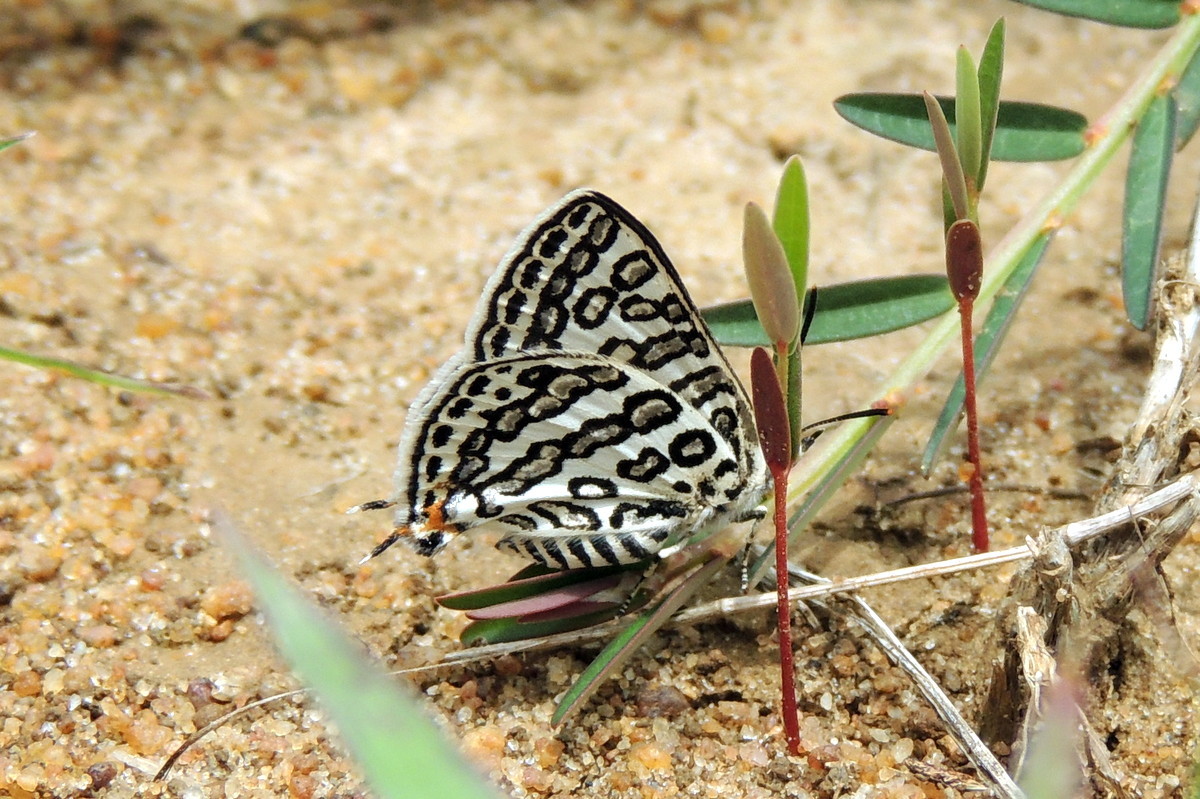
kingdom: Animalia
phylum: Arthropoda
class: Insecta
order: Lepidoptera
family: Lycaenidae
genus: Aphnaeus
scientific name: Aphnaeus lilacinus
